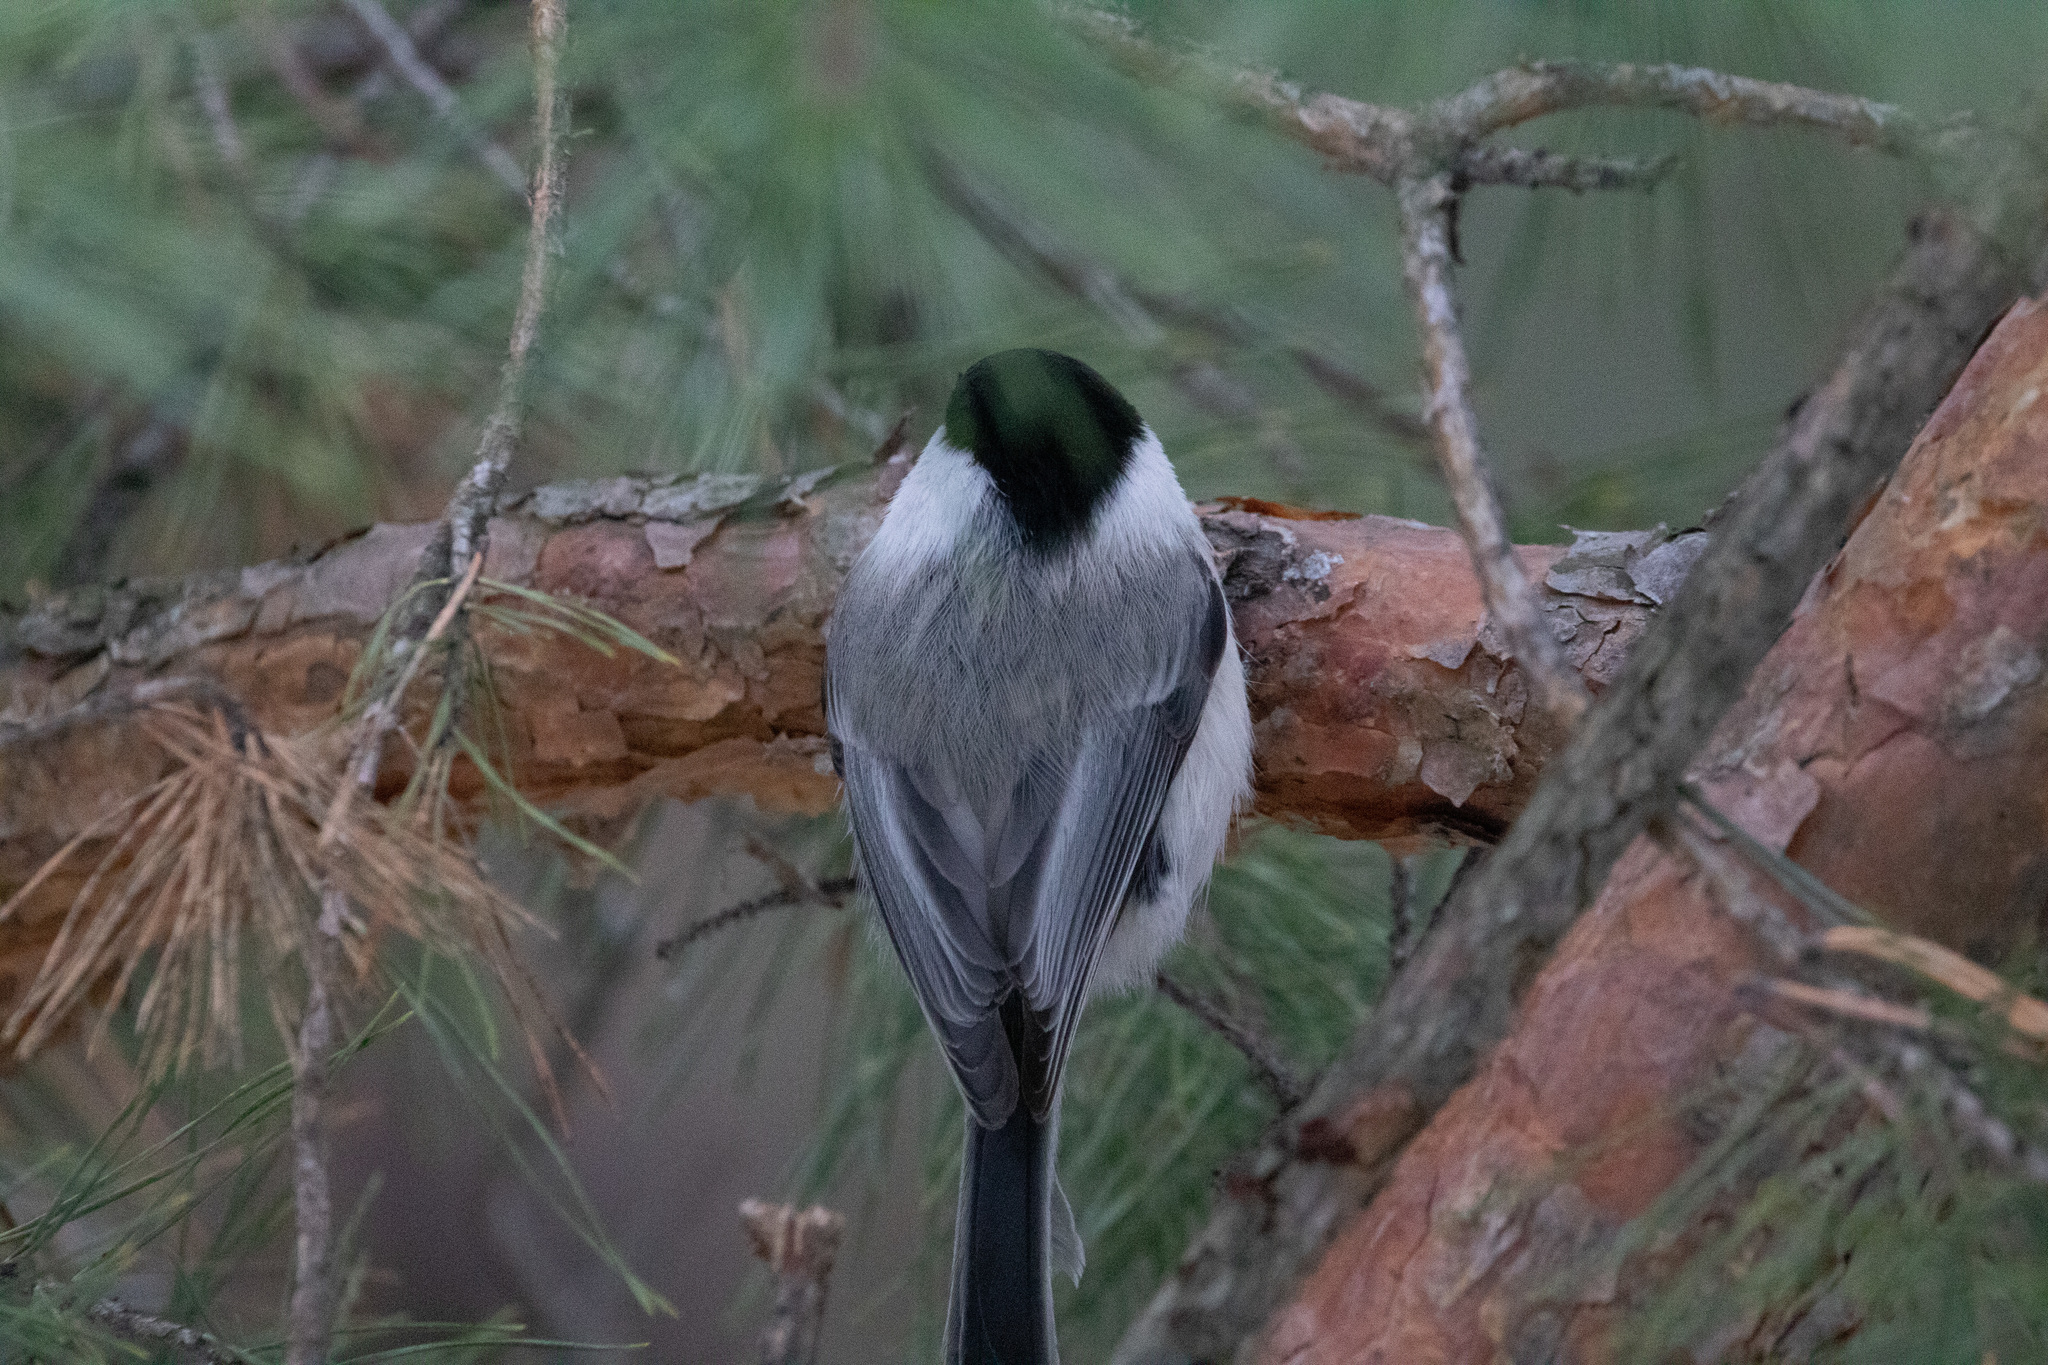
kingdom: Animalia
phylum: Chordata
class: Aves
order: Passeriformes
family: Paridae
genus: Poecile
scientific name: Poecile montanus
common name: Willow tit
